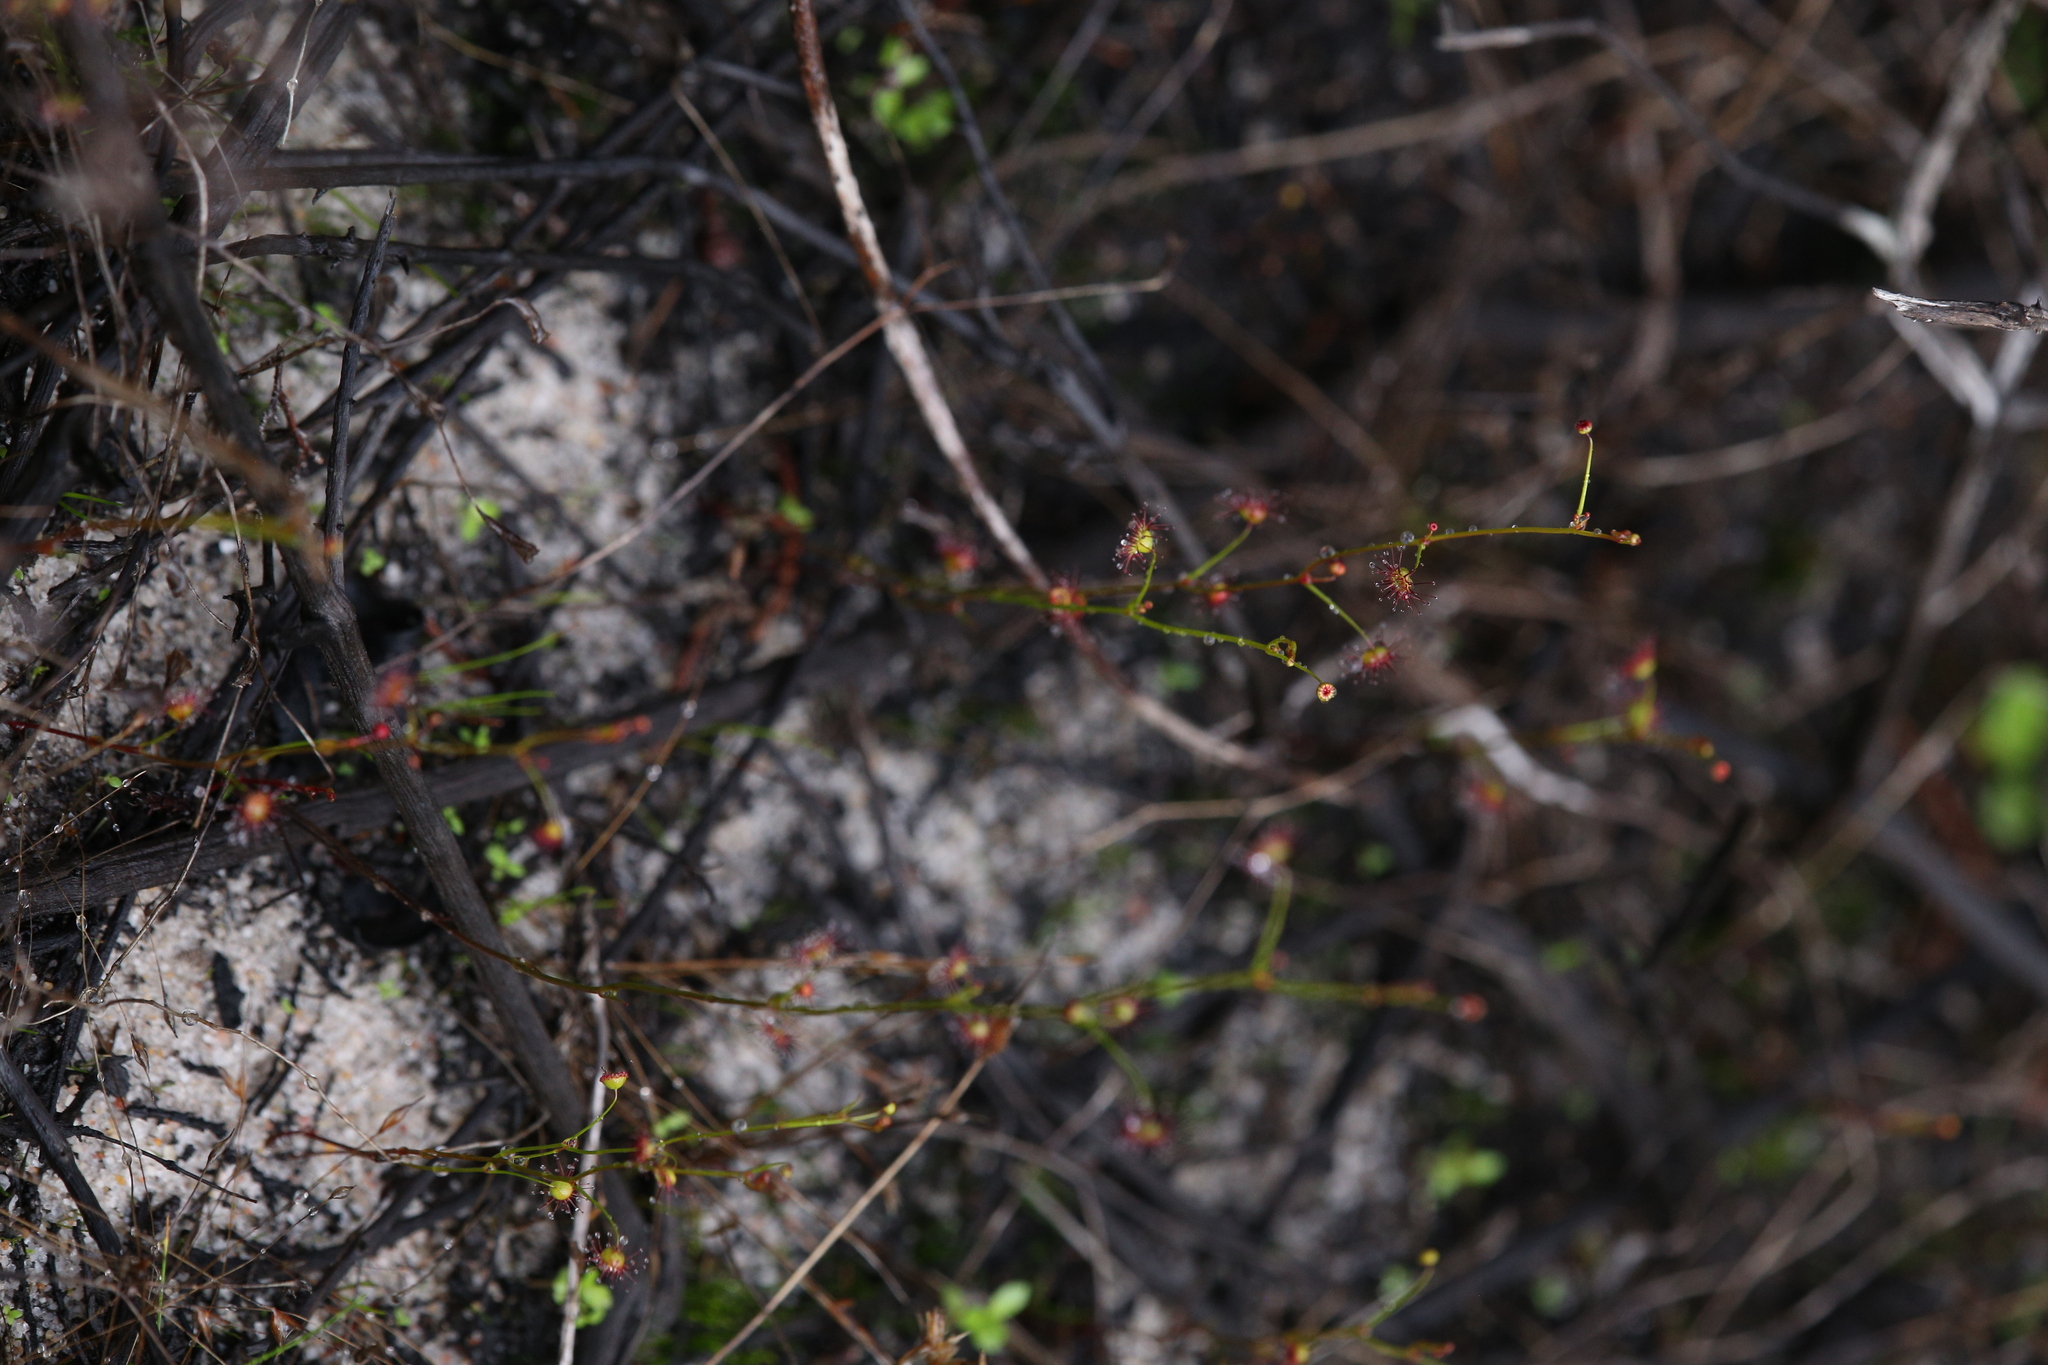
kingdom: Plantae
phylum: Tracheophyta
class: Magnoliopsida
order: Caryophyllales
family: Droseraceae
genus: Drosera
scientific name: Drosera
